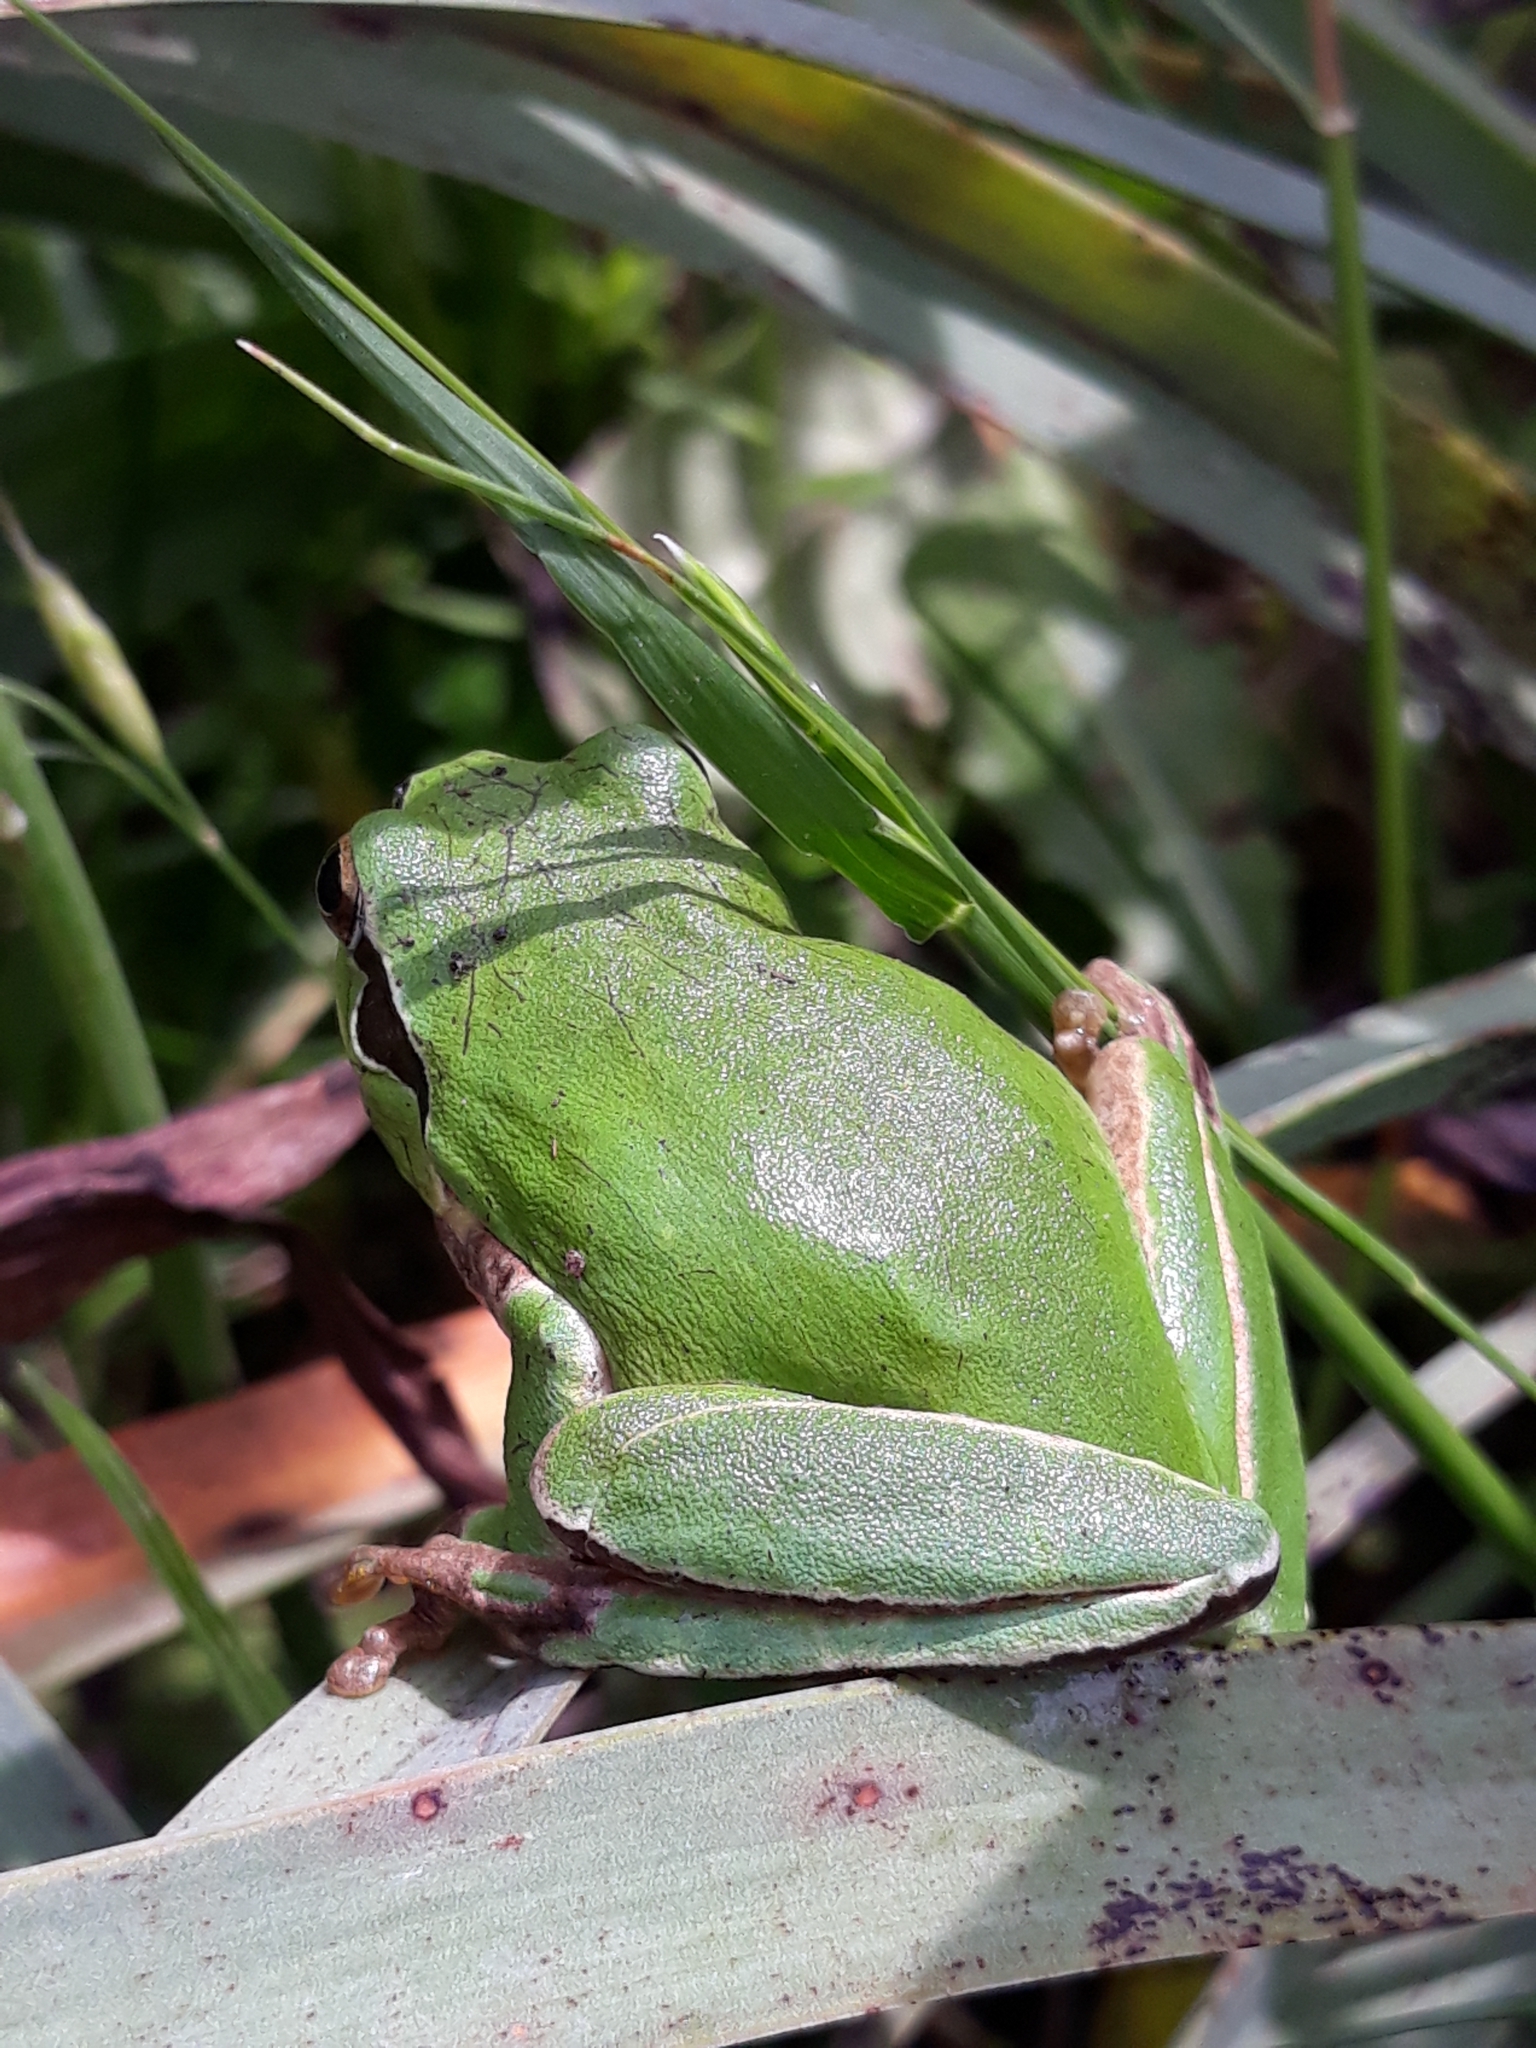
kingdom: Animalia
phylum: Chordata
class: Amphibia
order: Anura
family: Hylidae
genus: Hyla
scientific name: Hyla carthaginiensis
